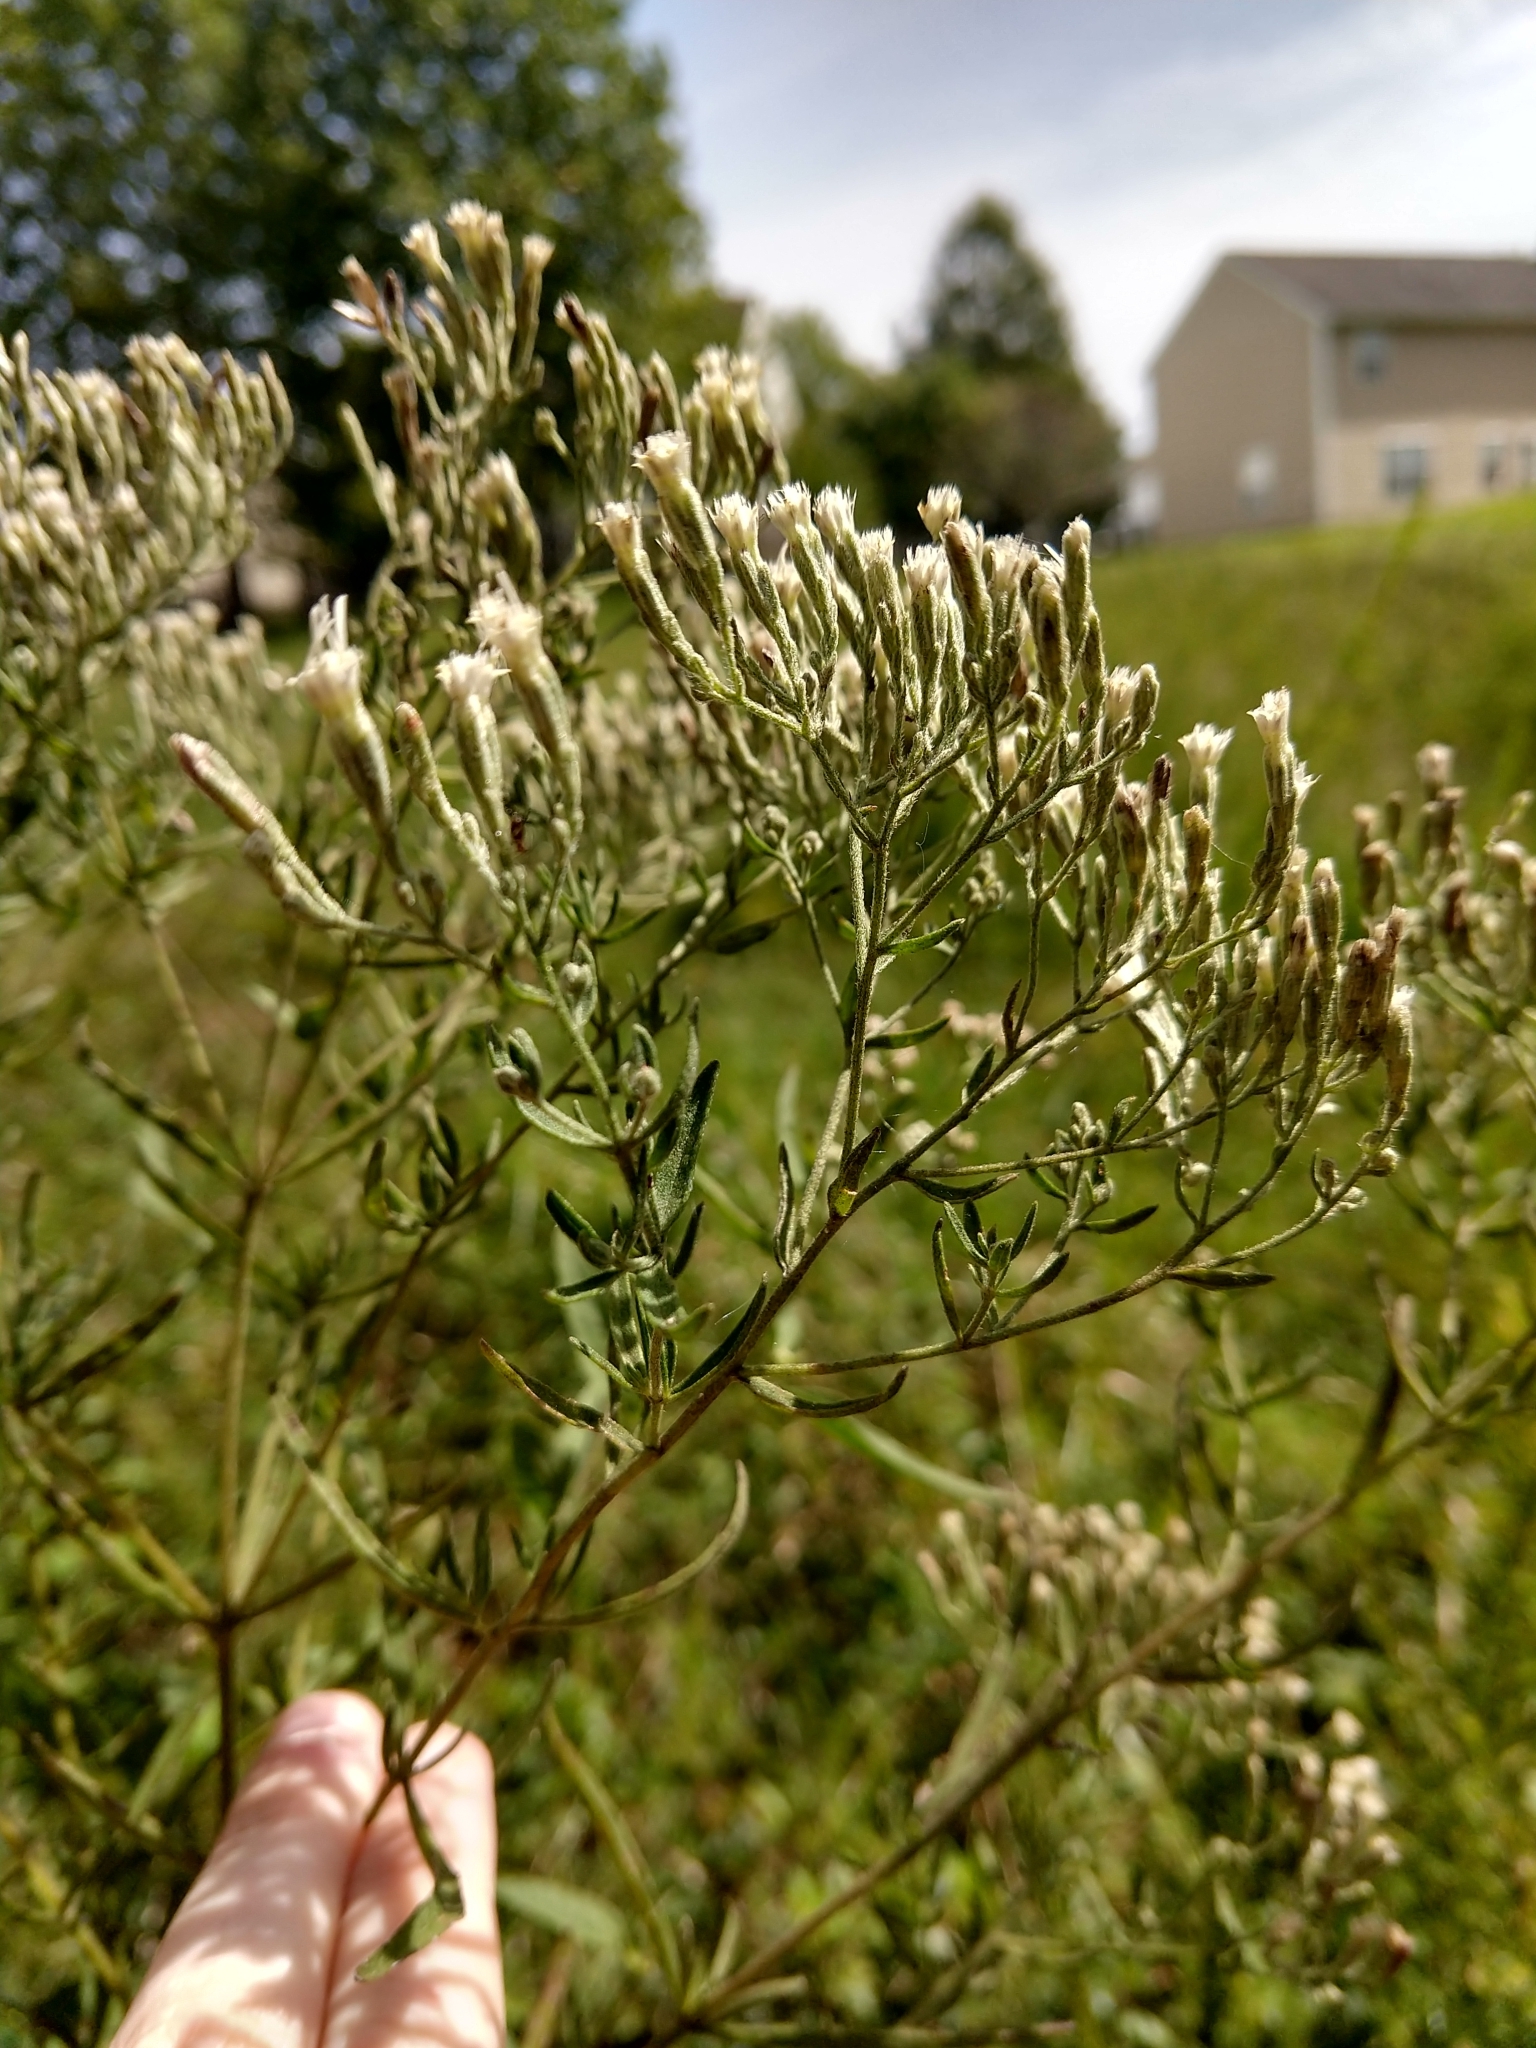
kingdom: Plantae
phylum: Tracheophyta
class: Magnoliopsida
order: Asterales
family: Asteraceae
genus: Eupatorium
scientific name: Eupatorium hyssopifolium
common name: Hyssop-leaf thoroughwort
